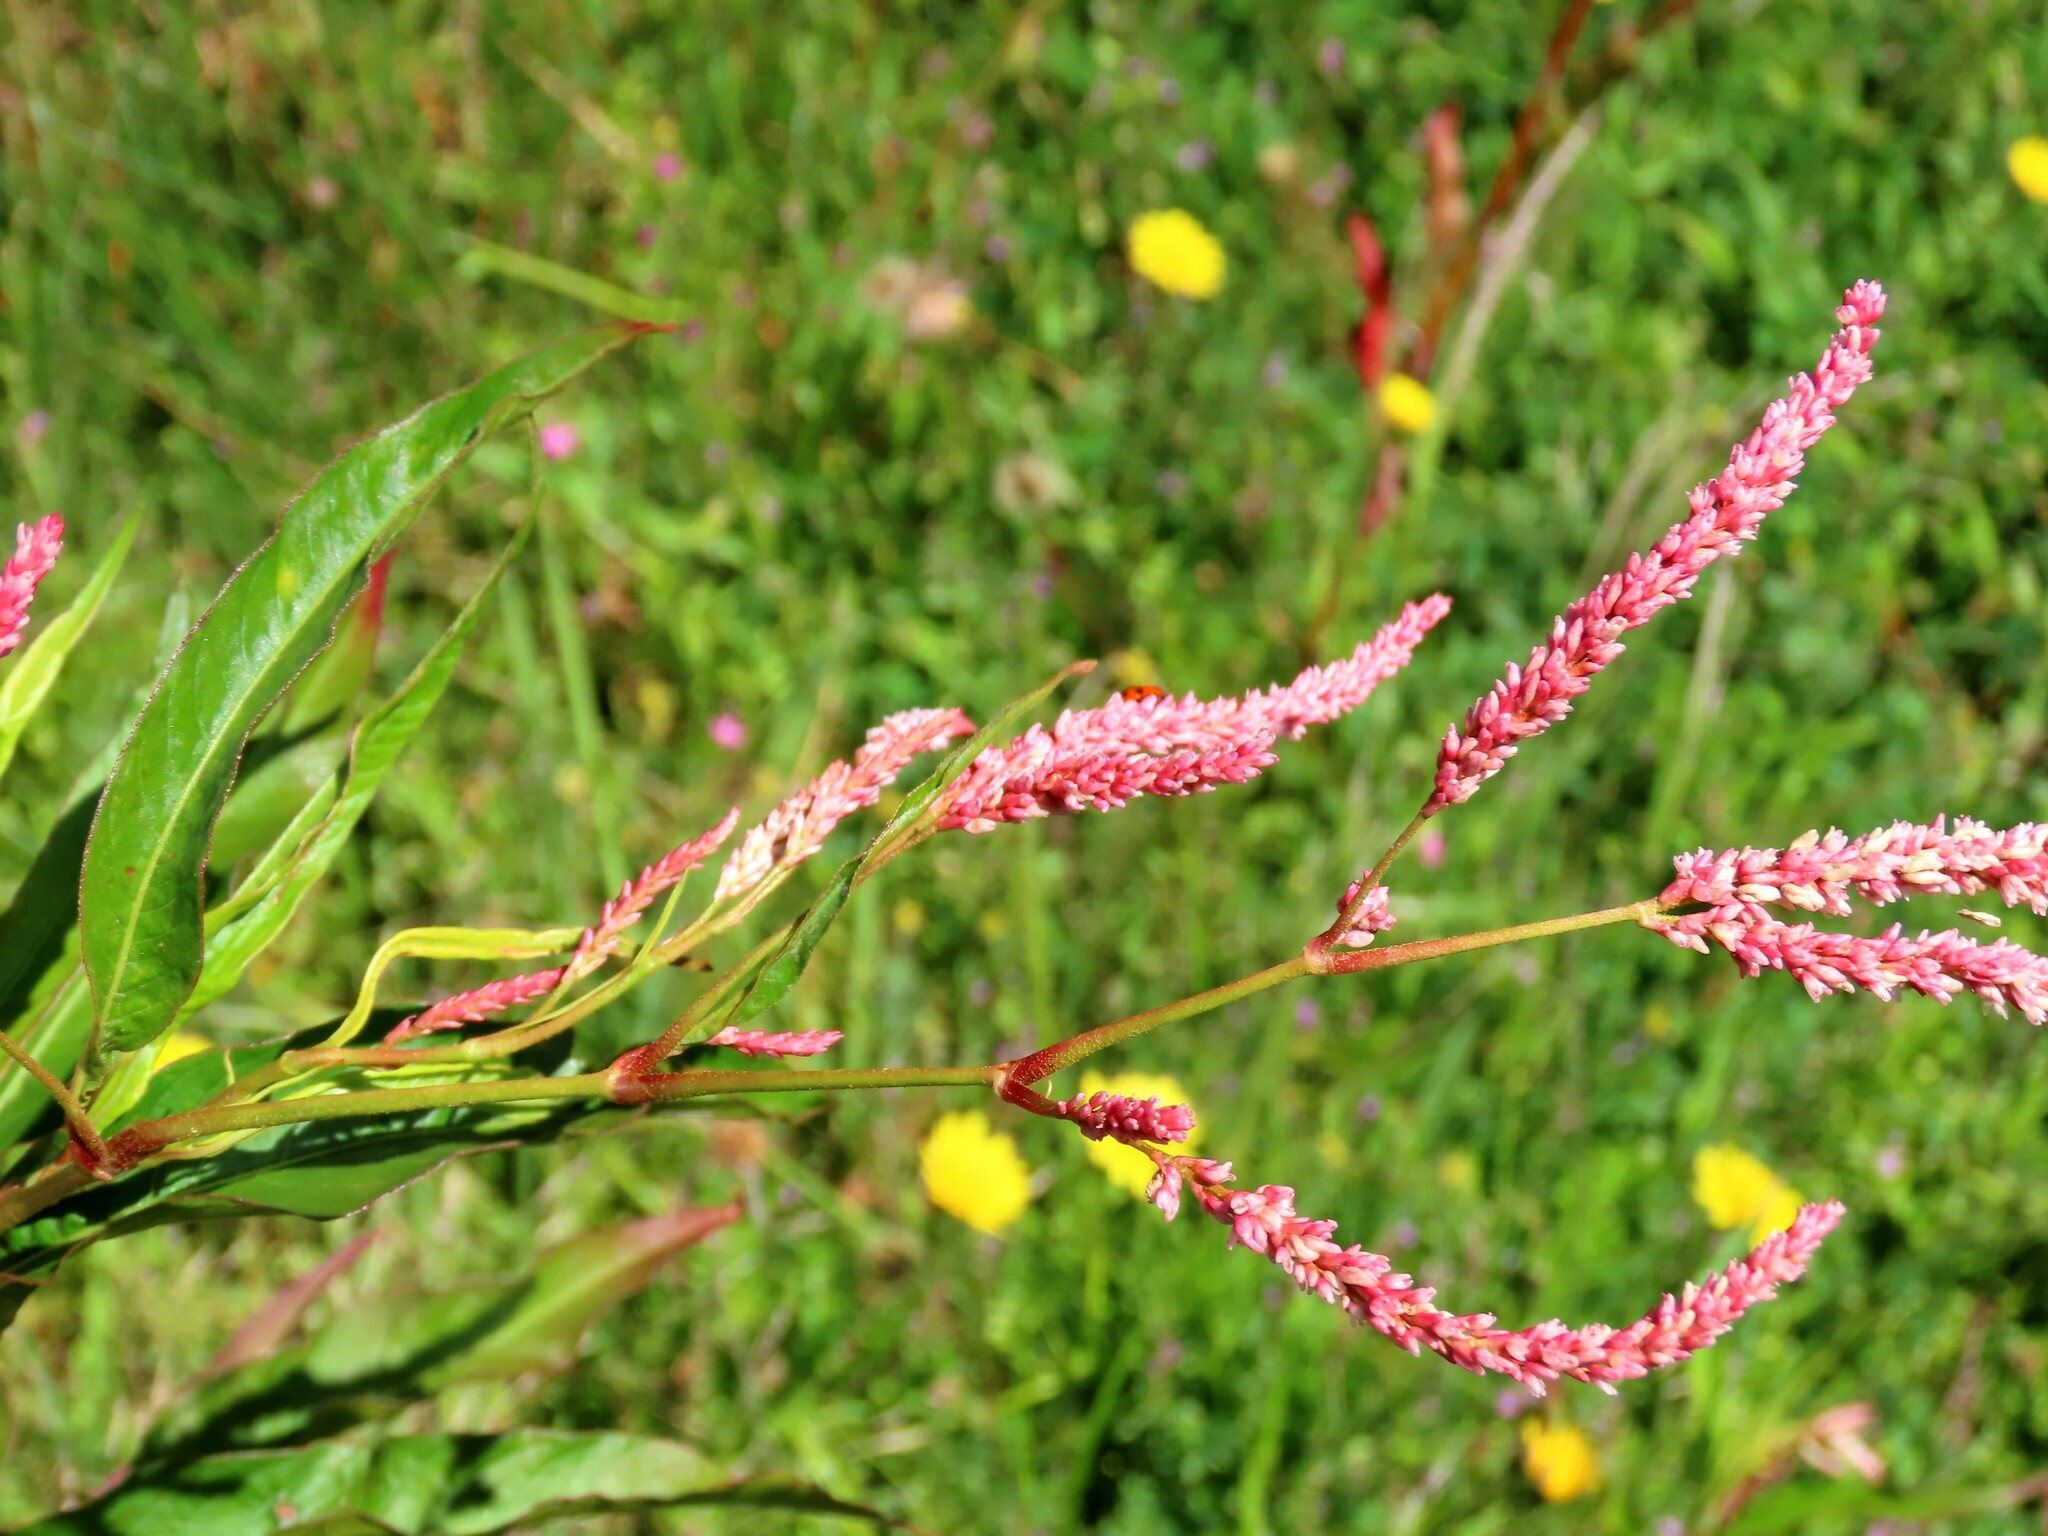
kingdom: Plantae
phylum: Tracheophyta
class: Magnoliopsida
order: Caryophyllales
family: Polygonaceae
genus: Persicaria
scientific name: Persicaria decipiens
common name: Willow-weed
